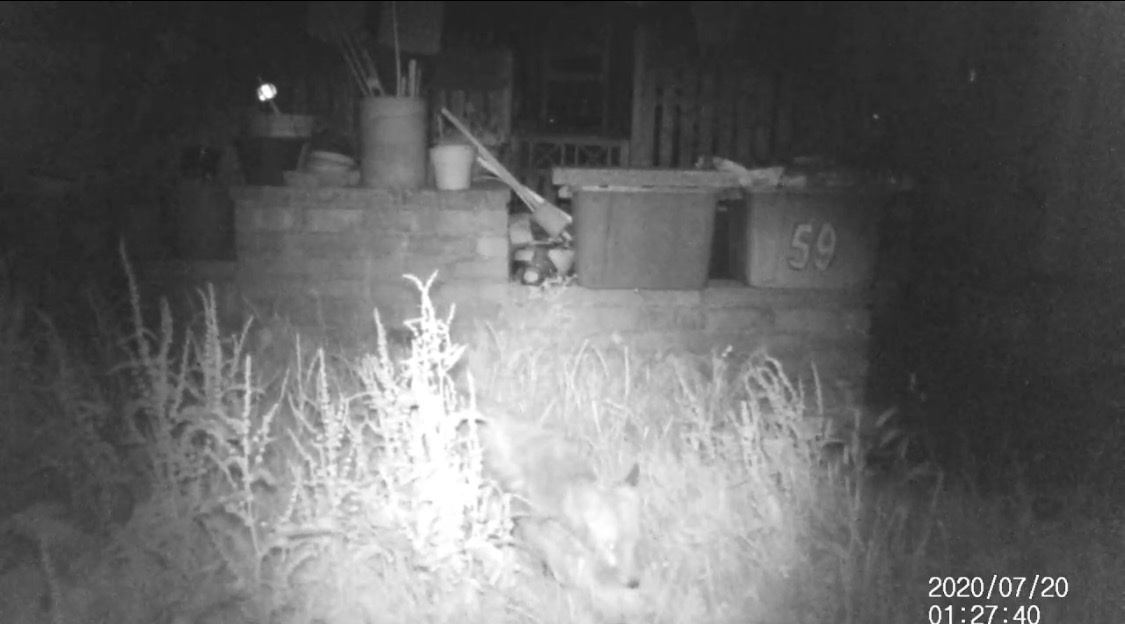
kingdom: Animalia
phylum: Chordata
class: Mammalia
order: Carnivora
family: Canidae
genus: Vulpes
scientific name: Vulpes vulpes
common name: Red fox
